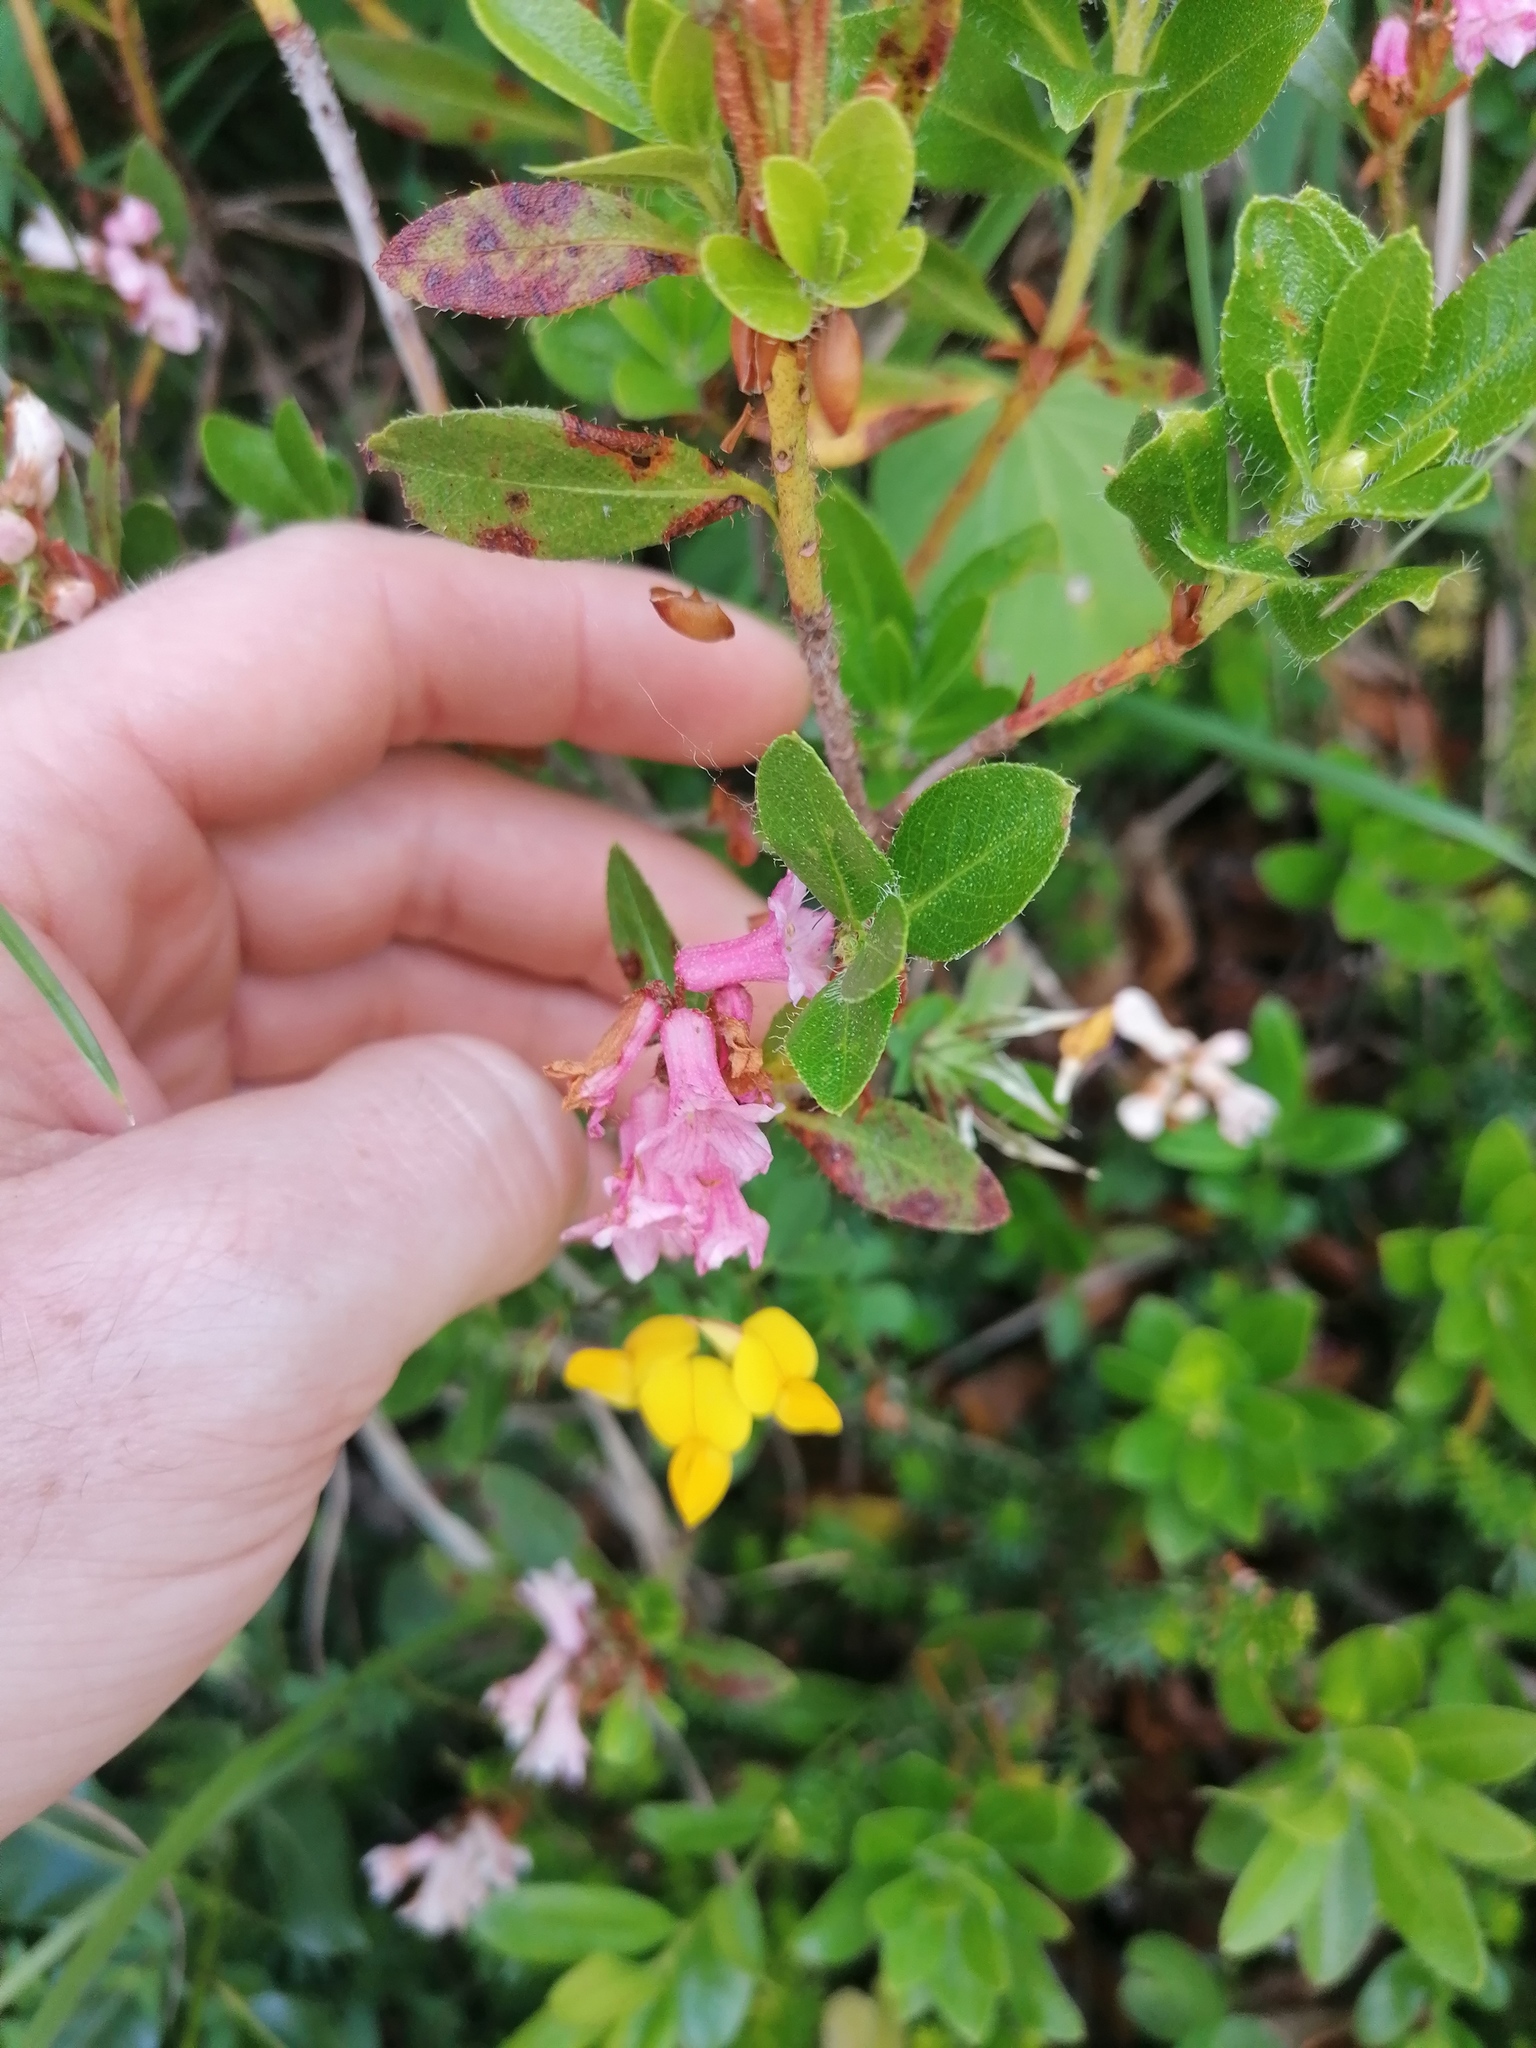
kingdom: Plantae
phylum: Tracheophyta
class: Magnoliopsida
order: Ericales
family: Ericaceae
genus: Rhododendron
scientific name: Rhododendron hirsutum
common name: Hairy alpenrose
